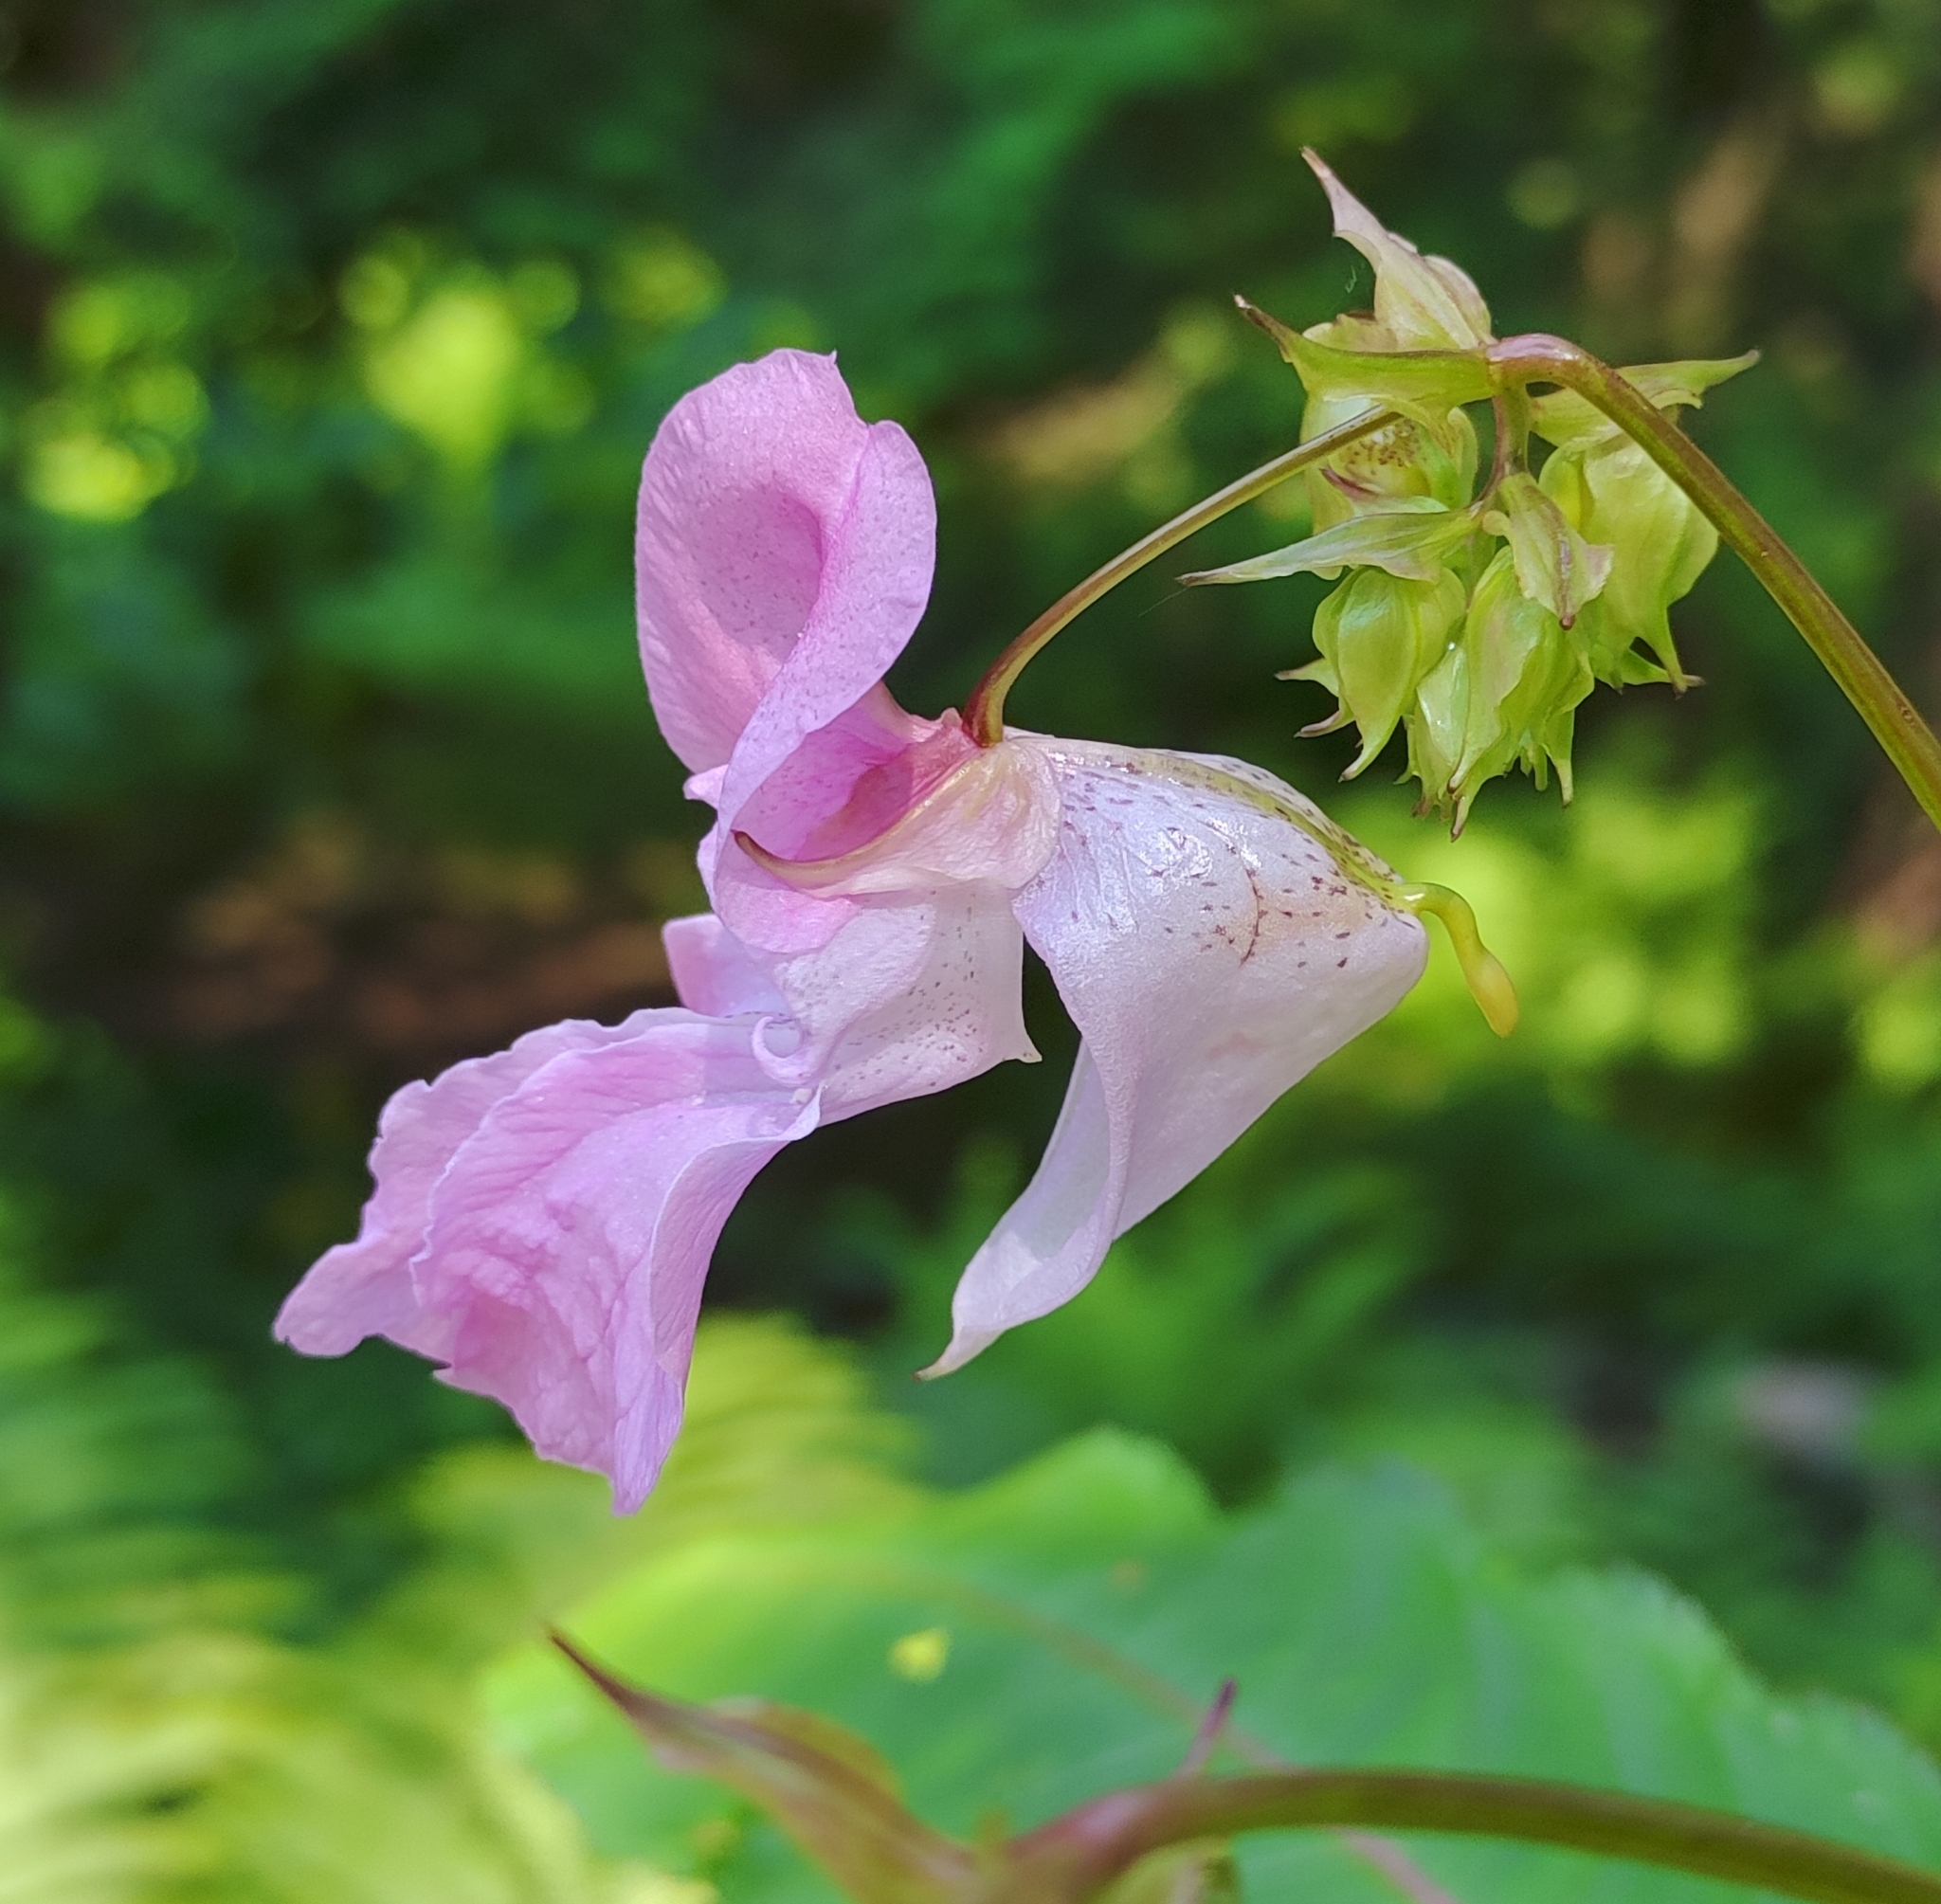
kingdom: Plantae
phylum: Tracheophyta
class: Magnoliopsida
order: Ericales
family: Balsaminaceae
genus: Impatiens
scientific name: Impatiens glandulifera
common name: Himalayan balsam
